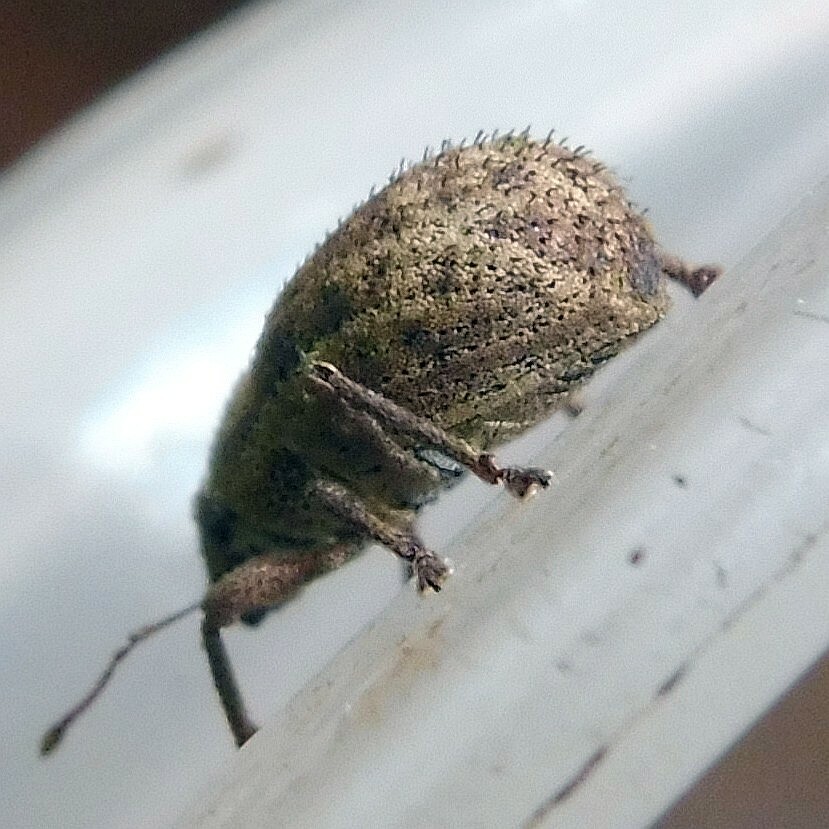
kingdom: Animalia
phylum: Arthropoda
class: Insecta
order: Coleoptera
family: Curculionidae
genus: Strophosoma
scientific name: Strophosoma melanogrammum
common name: Weevil
